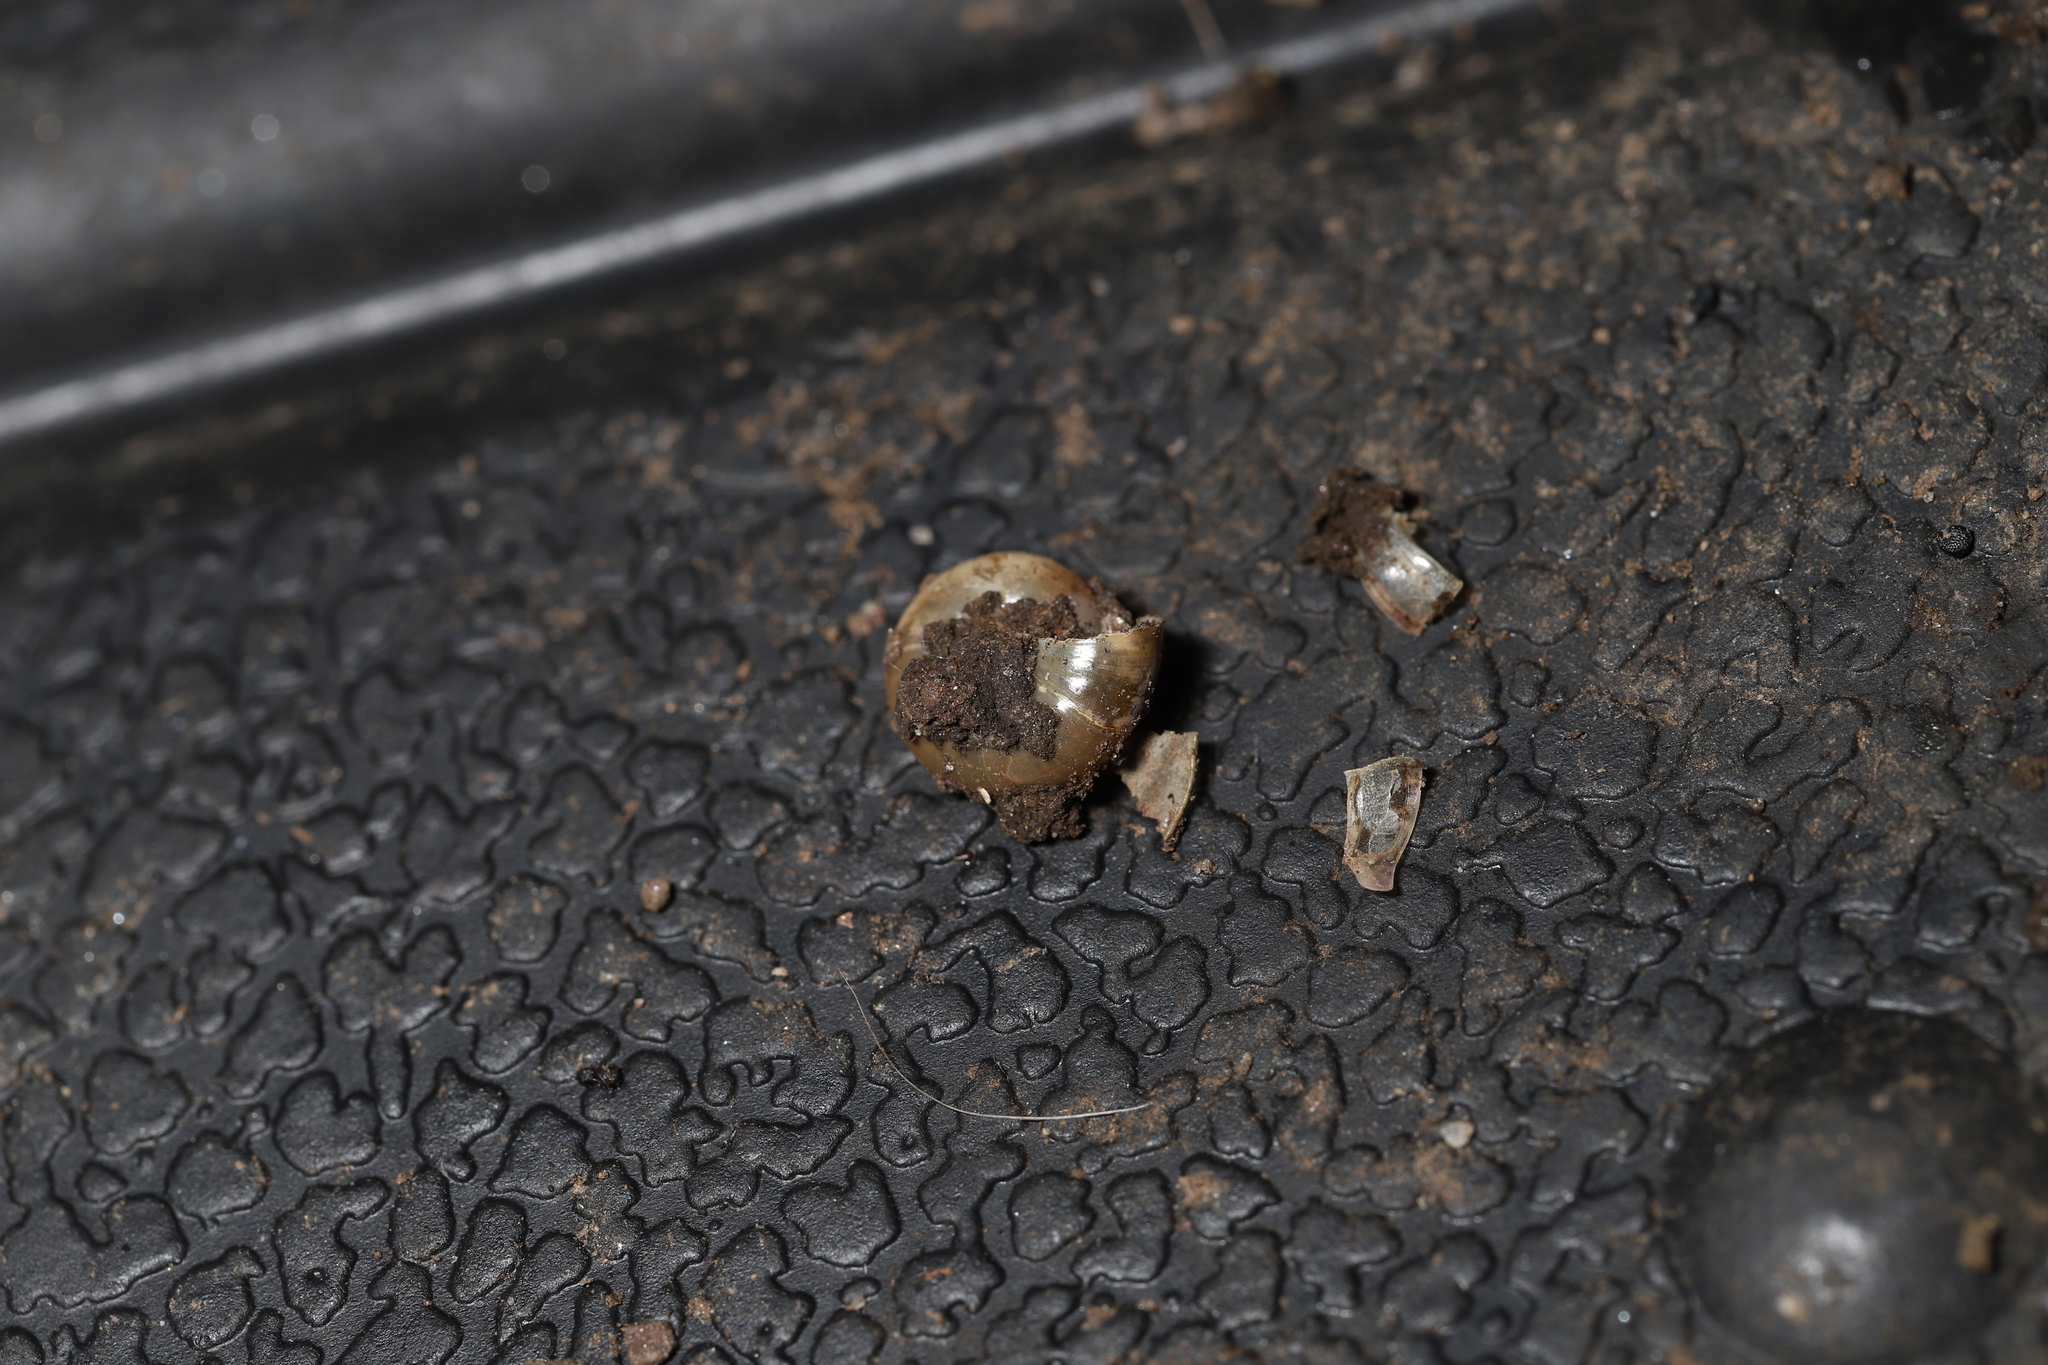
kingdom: Animalia
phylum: Mollusca
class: Gastropoda
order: Stylommatophora
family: Oxychilidae
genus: Oxychilus
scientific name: Oxychilus alliarius
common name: Garlic glass-snail
